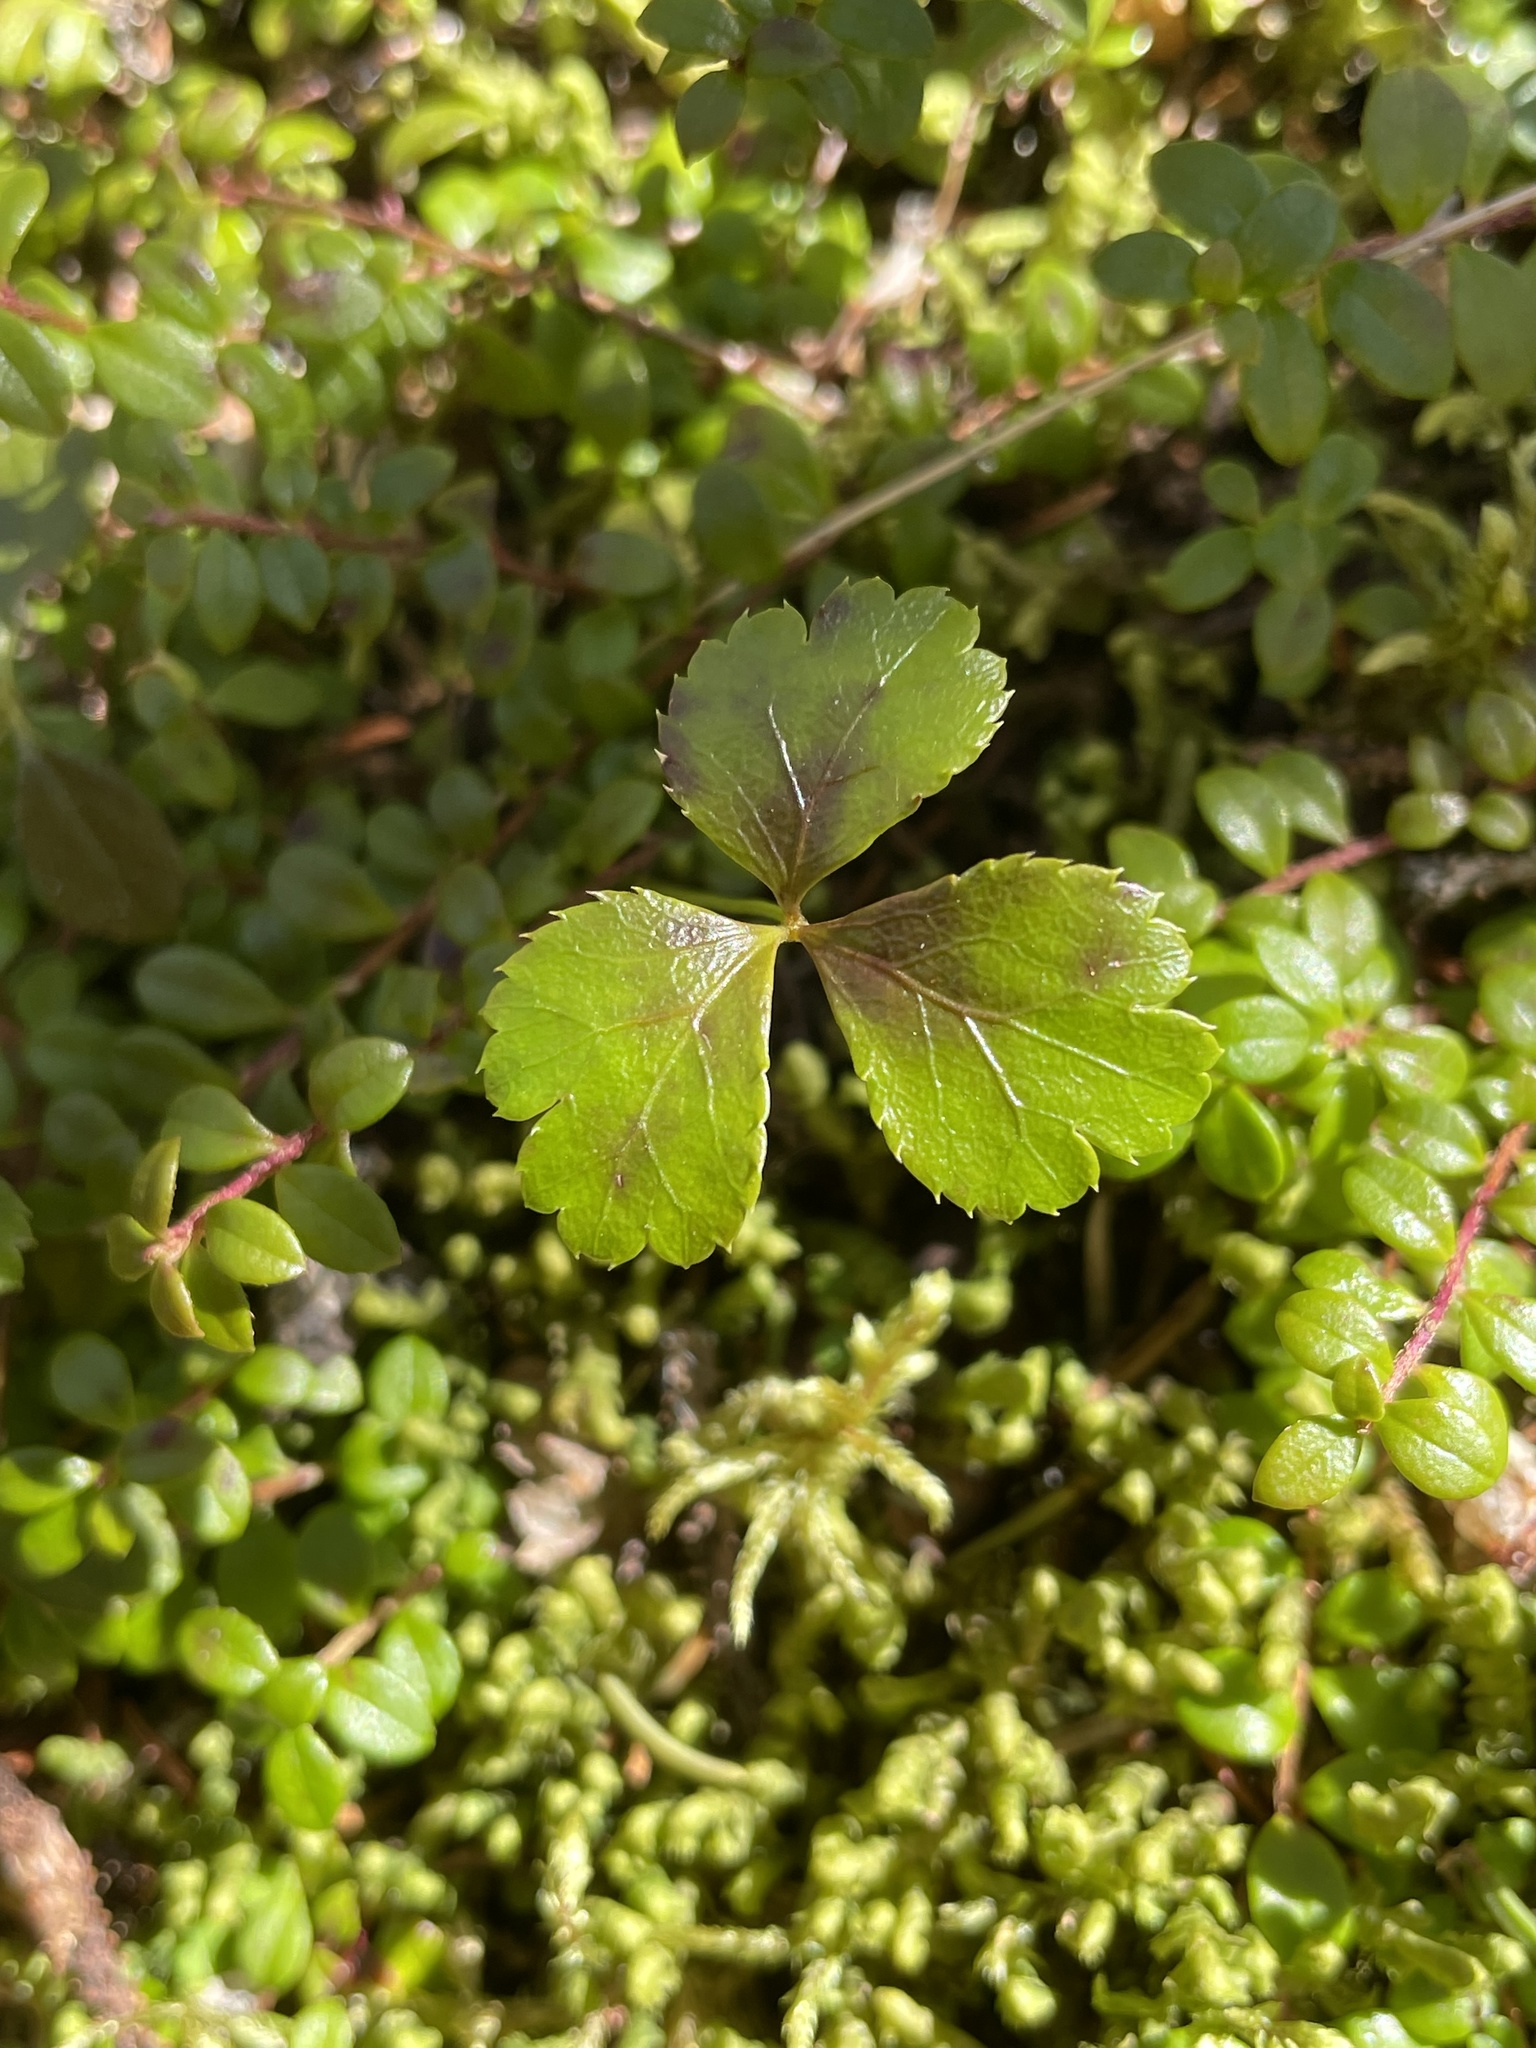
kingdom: Plantae
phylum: Tracheophyta
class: Magnoliopsida
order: Ranunculales
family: Ranunculaceae
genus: Coptis
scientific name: Coptis trifolia
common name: Canker-root
